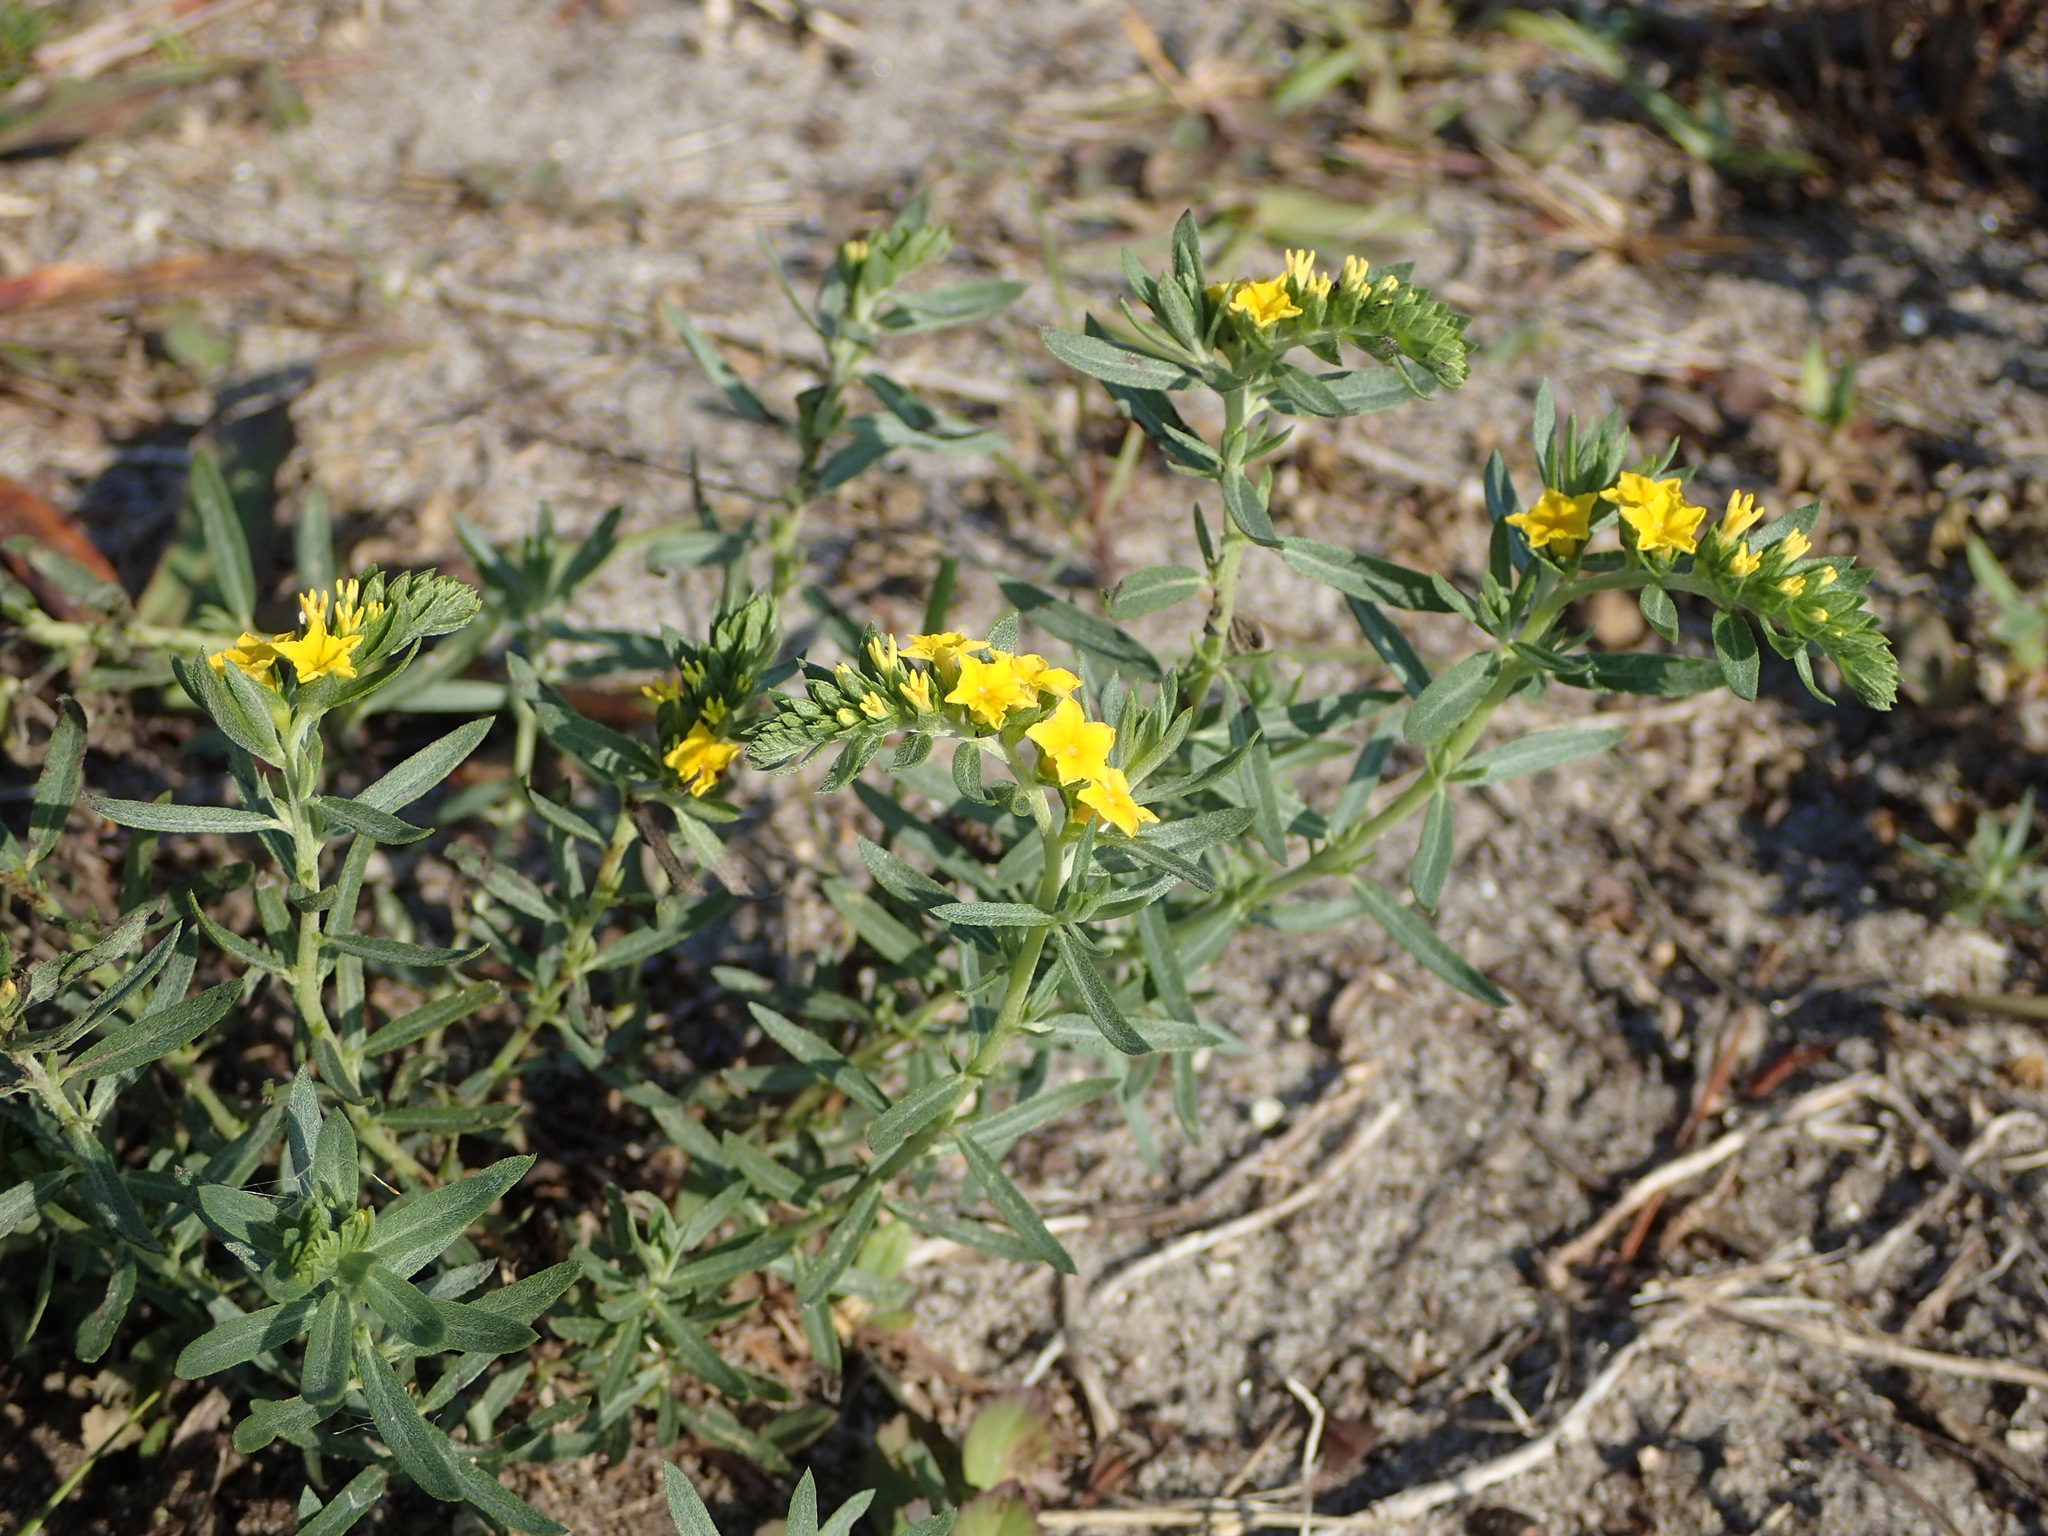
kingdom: Plantae
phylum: Tracheophyta
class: Magnoliopsida
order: Boraginales
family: Heliotropiaceae
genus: Euploca
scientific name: Euploca polyphylla
